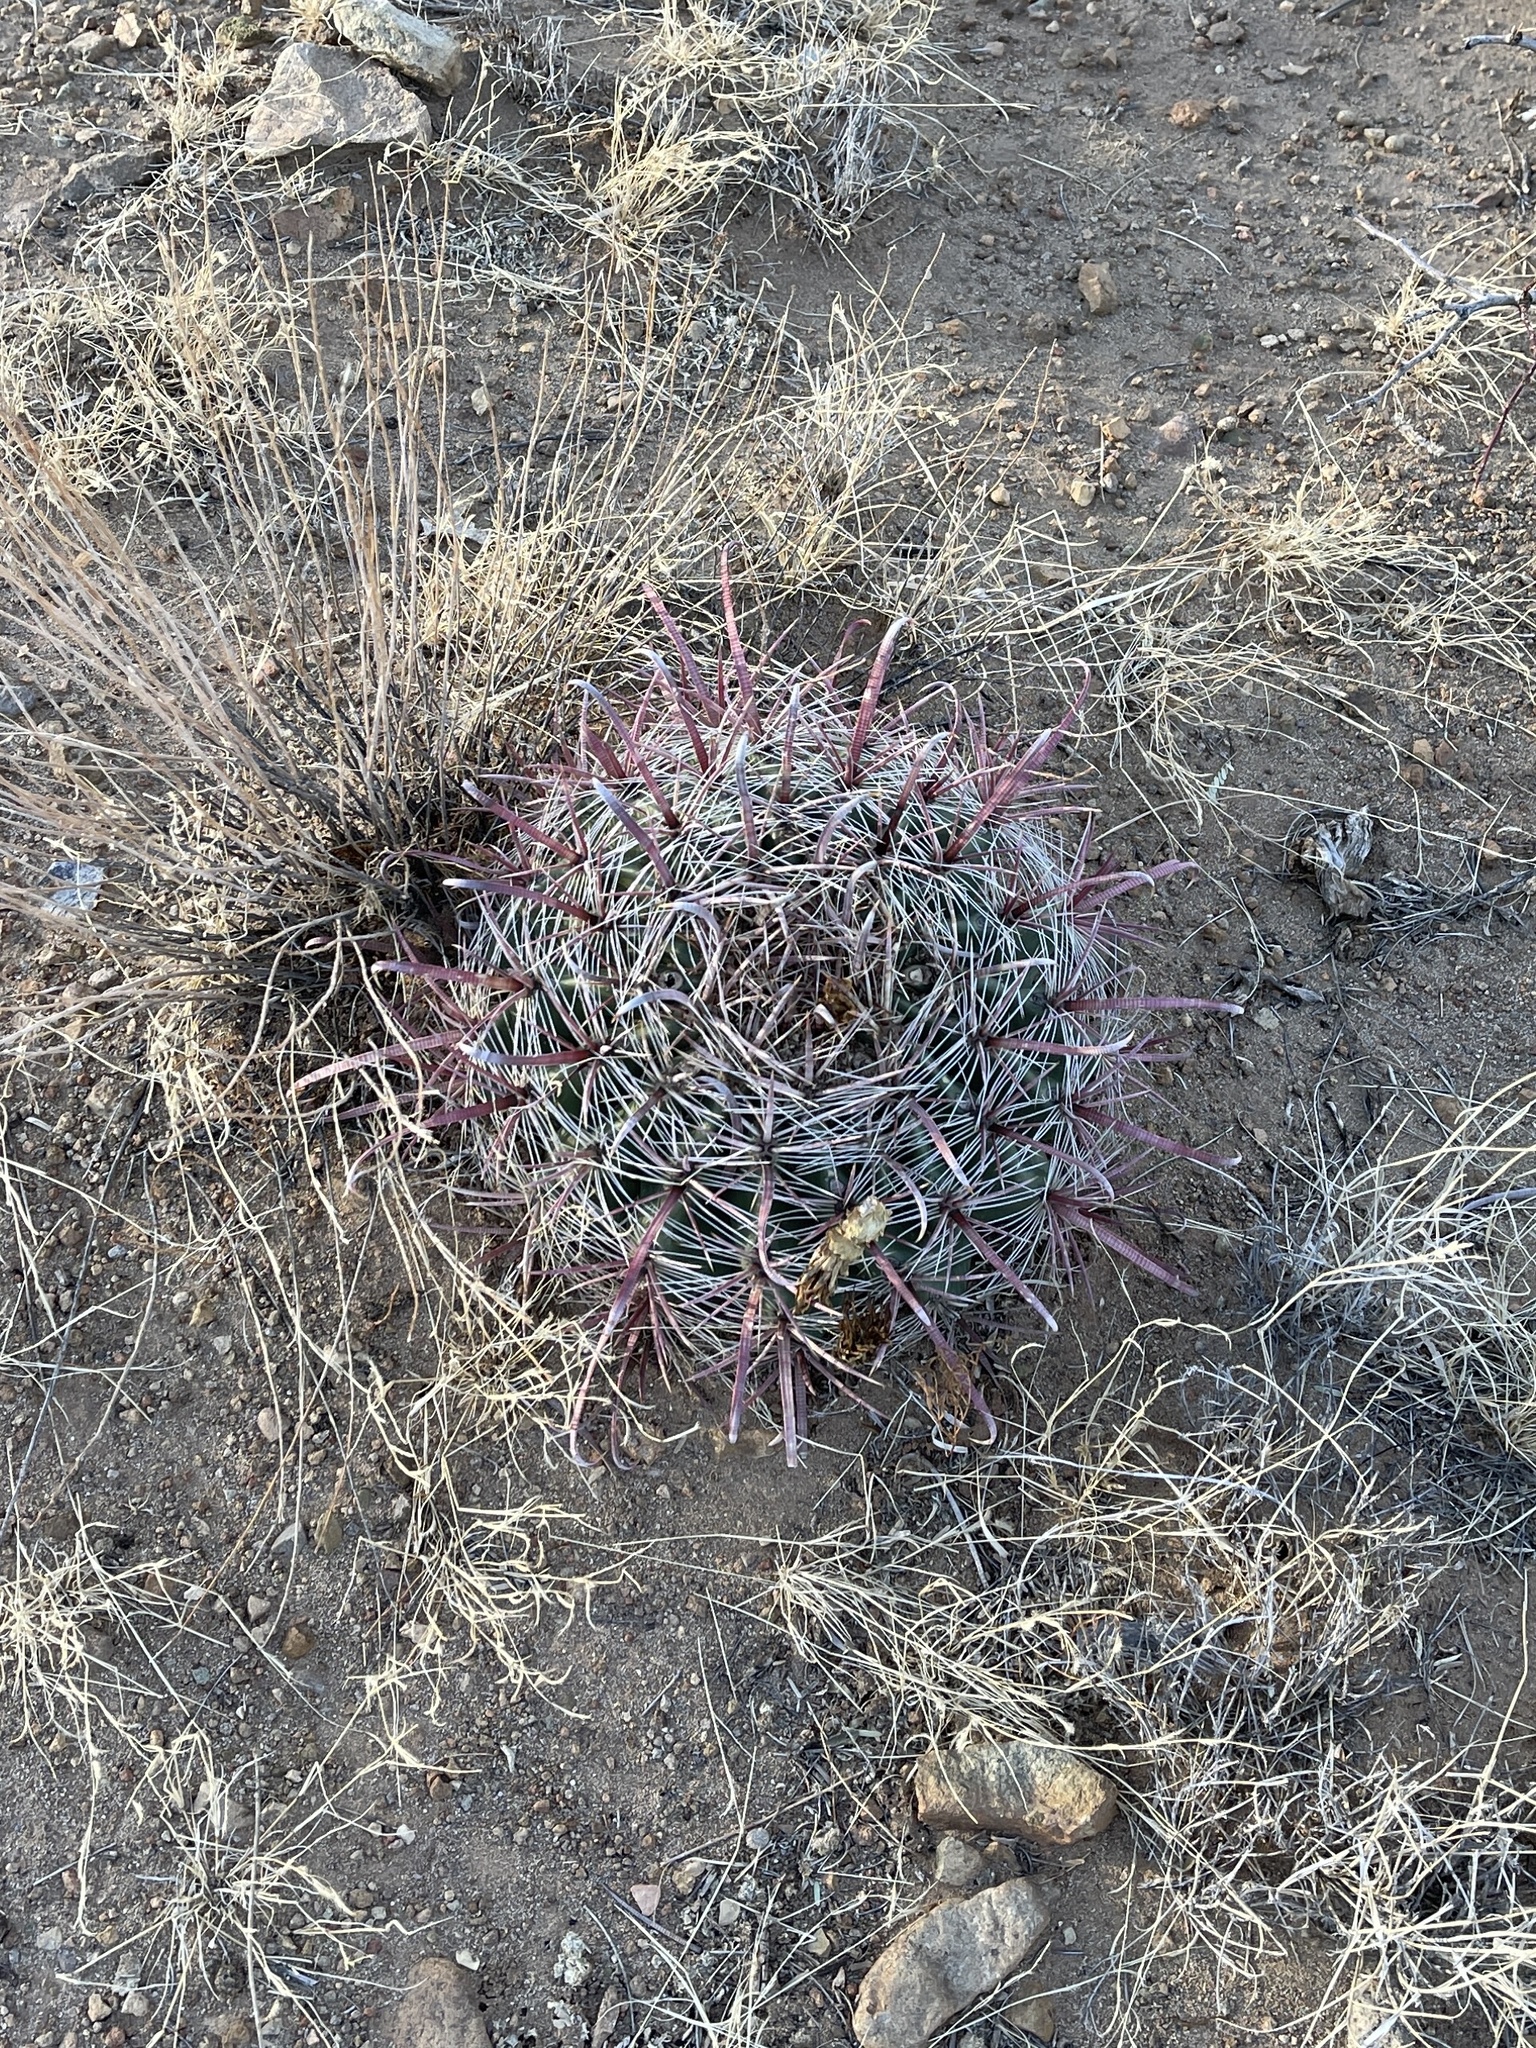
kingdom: Plantae
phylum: Tracheophyta
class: Magnoliopsida
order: Caryophyllales
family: Cactaceae
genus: Ferocactus
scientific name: Ferocactus wislizeni
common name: Candy barrel cactus
